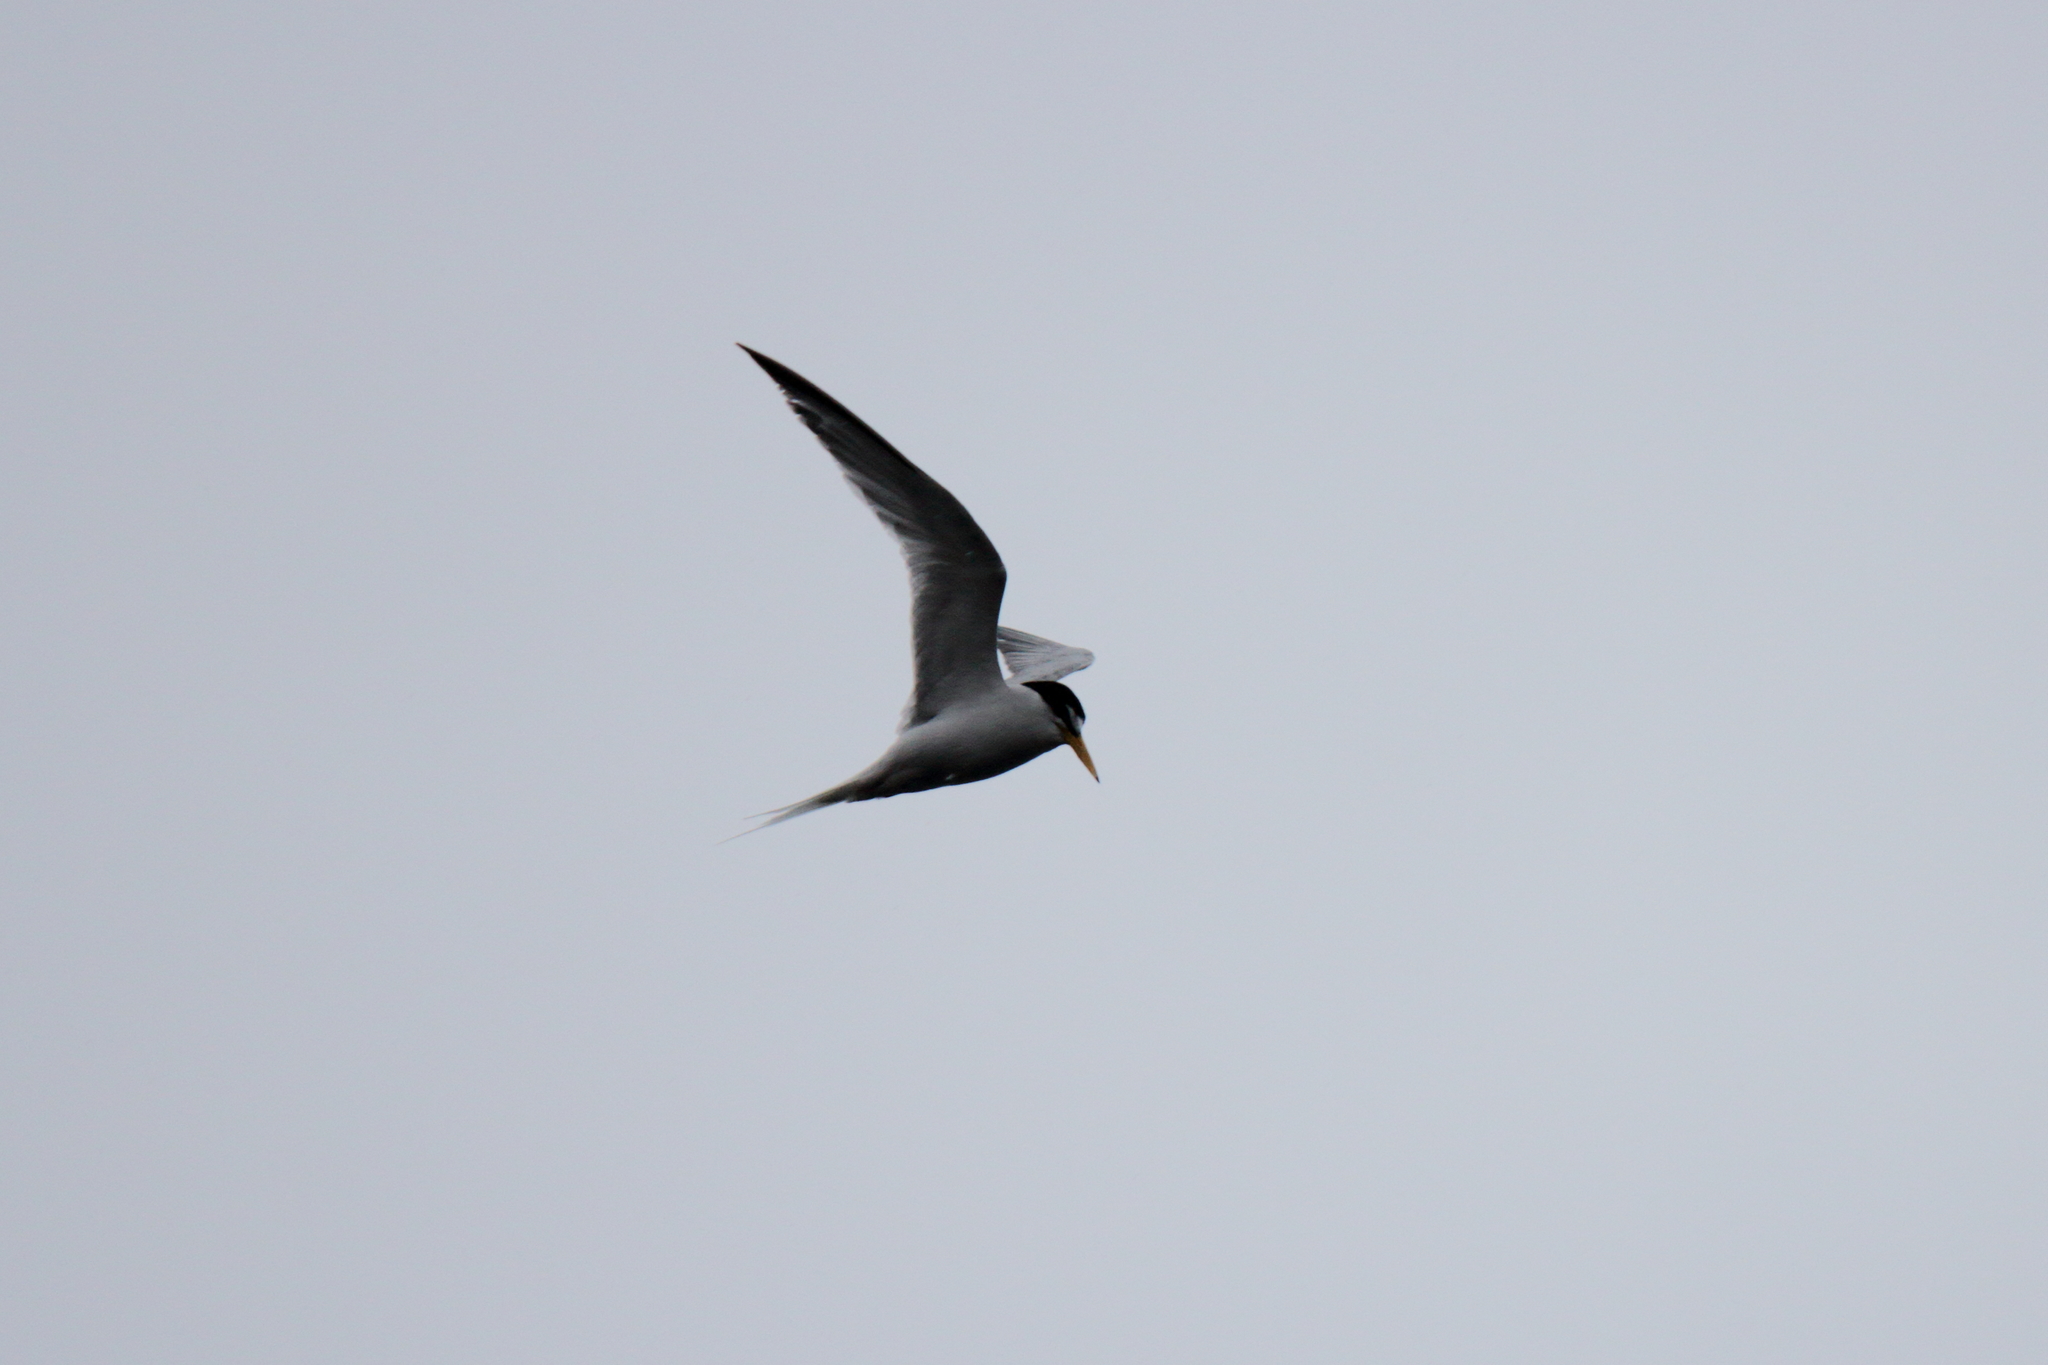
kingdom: Animalia
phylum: Chordata
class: Aves
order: Charadriiformes
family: Laridae
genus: Sternula
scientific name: Sternula albifrons
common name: Little tern
